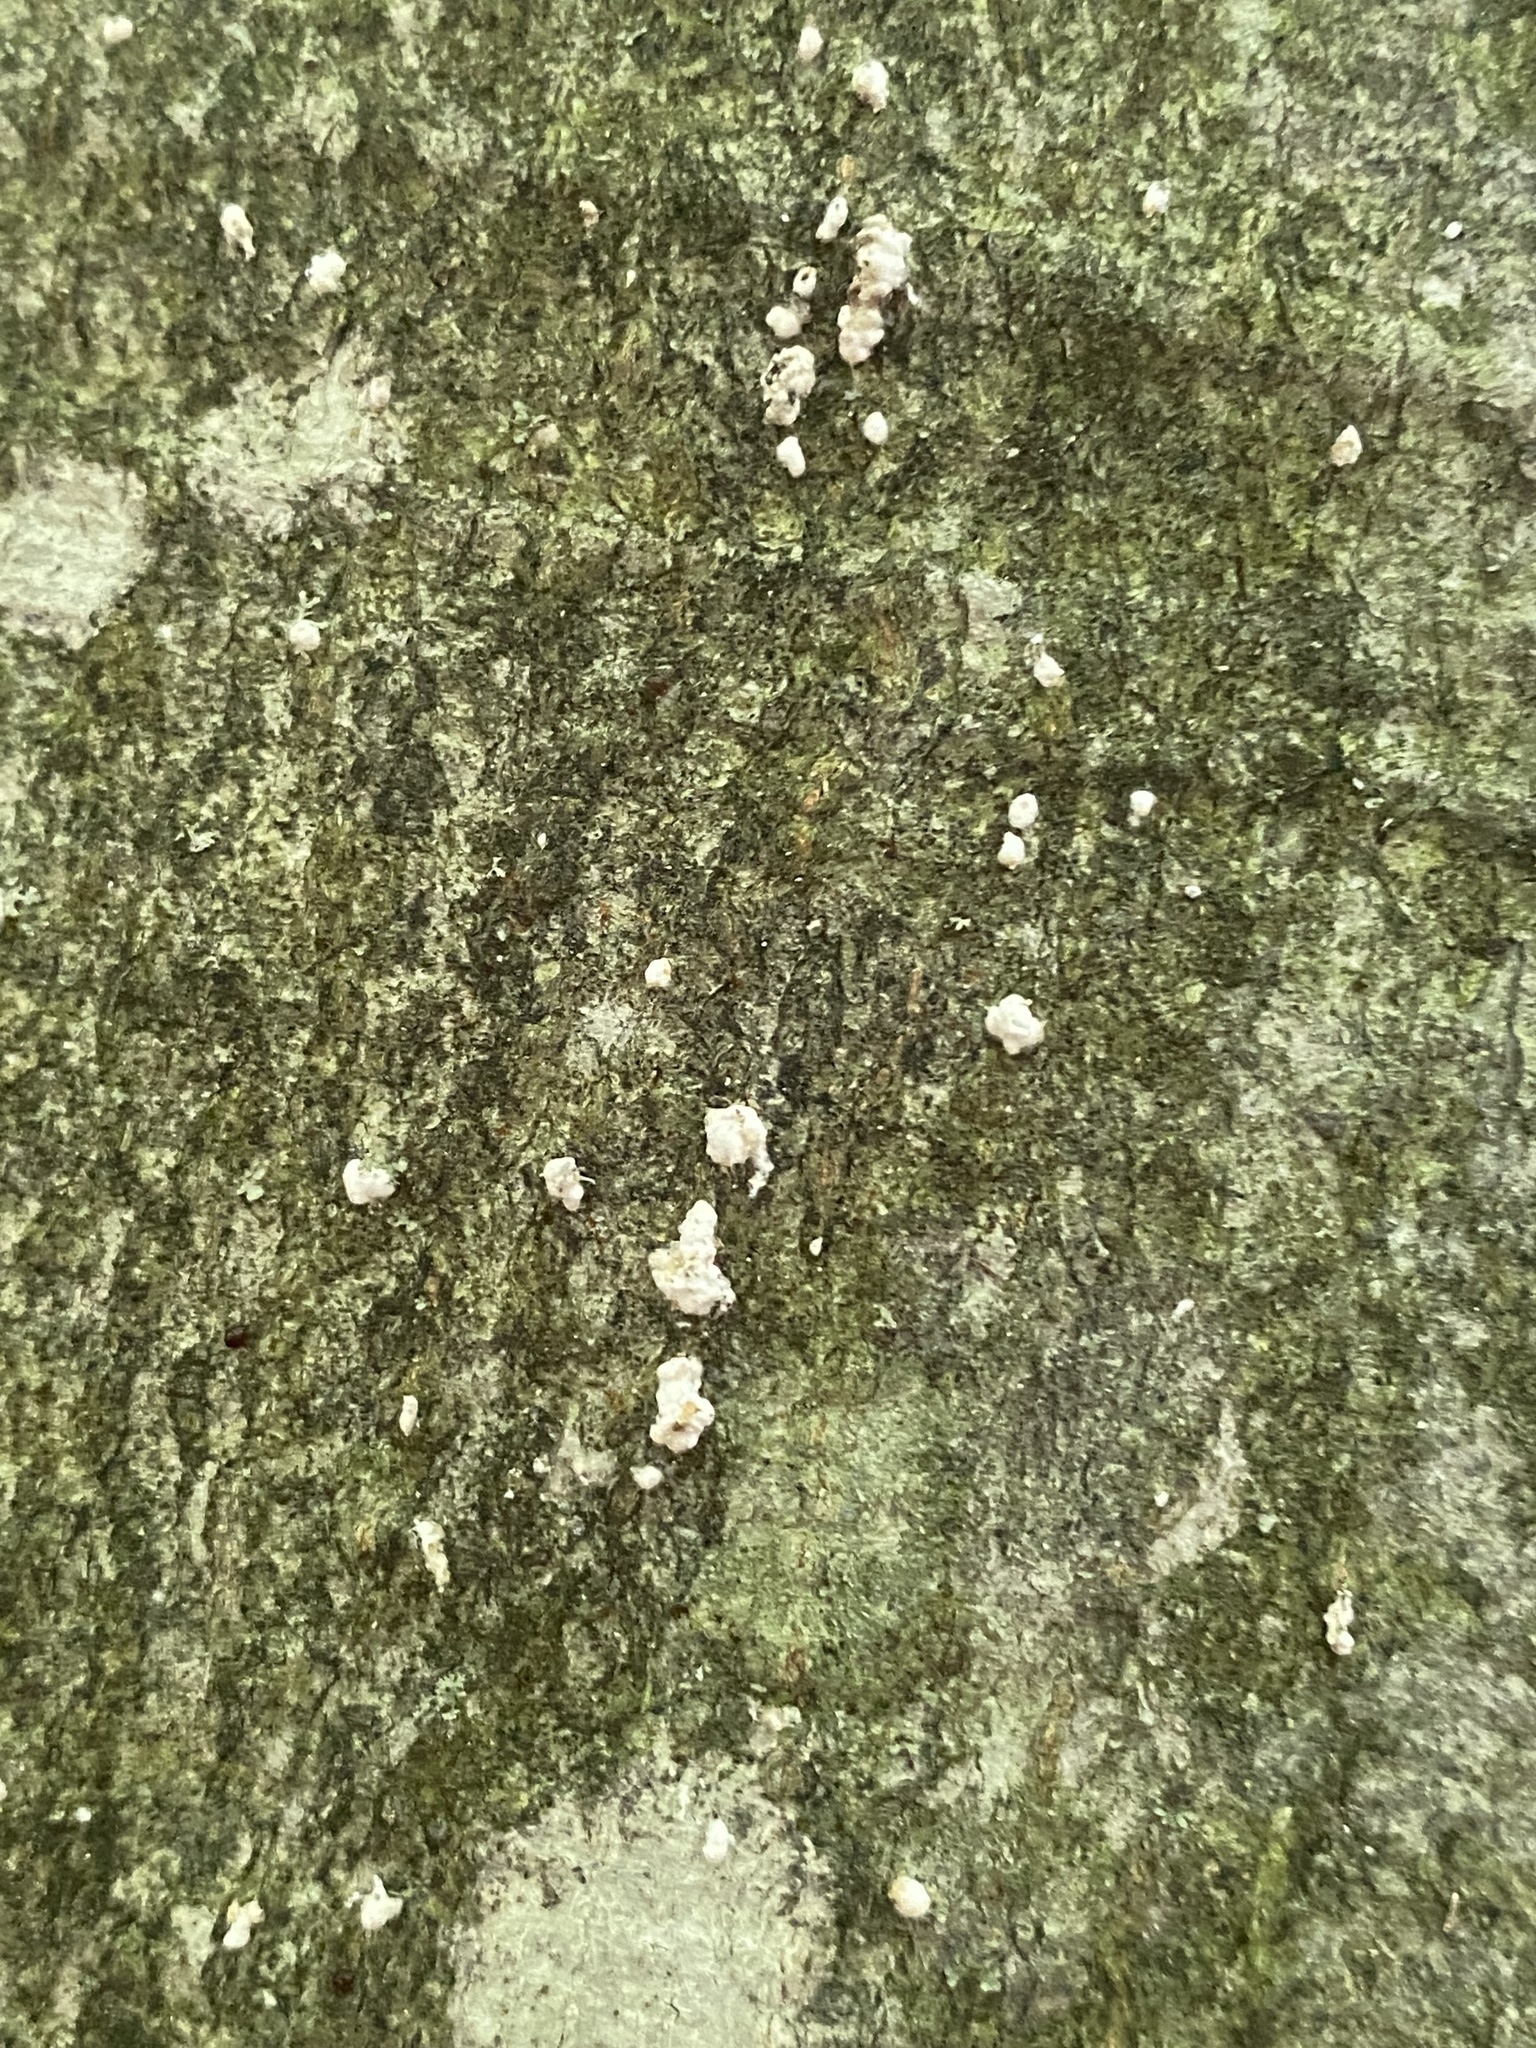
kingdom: Plantae
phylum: Tracheophyta
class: Magnoliopsida
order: Fagales
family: Fagaceae
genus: Fagus
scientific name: Fagus grandifolia
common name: American beech
